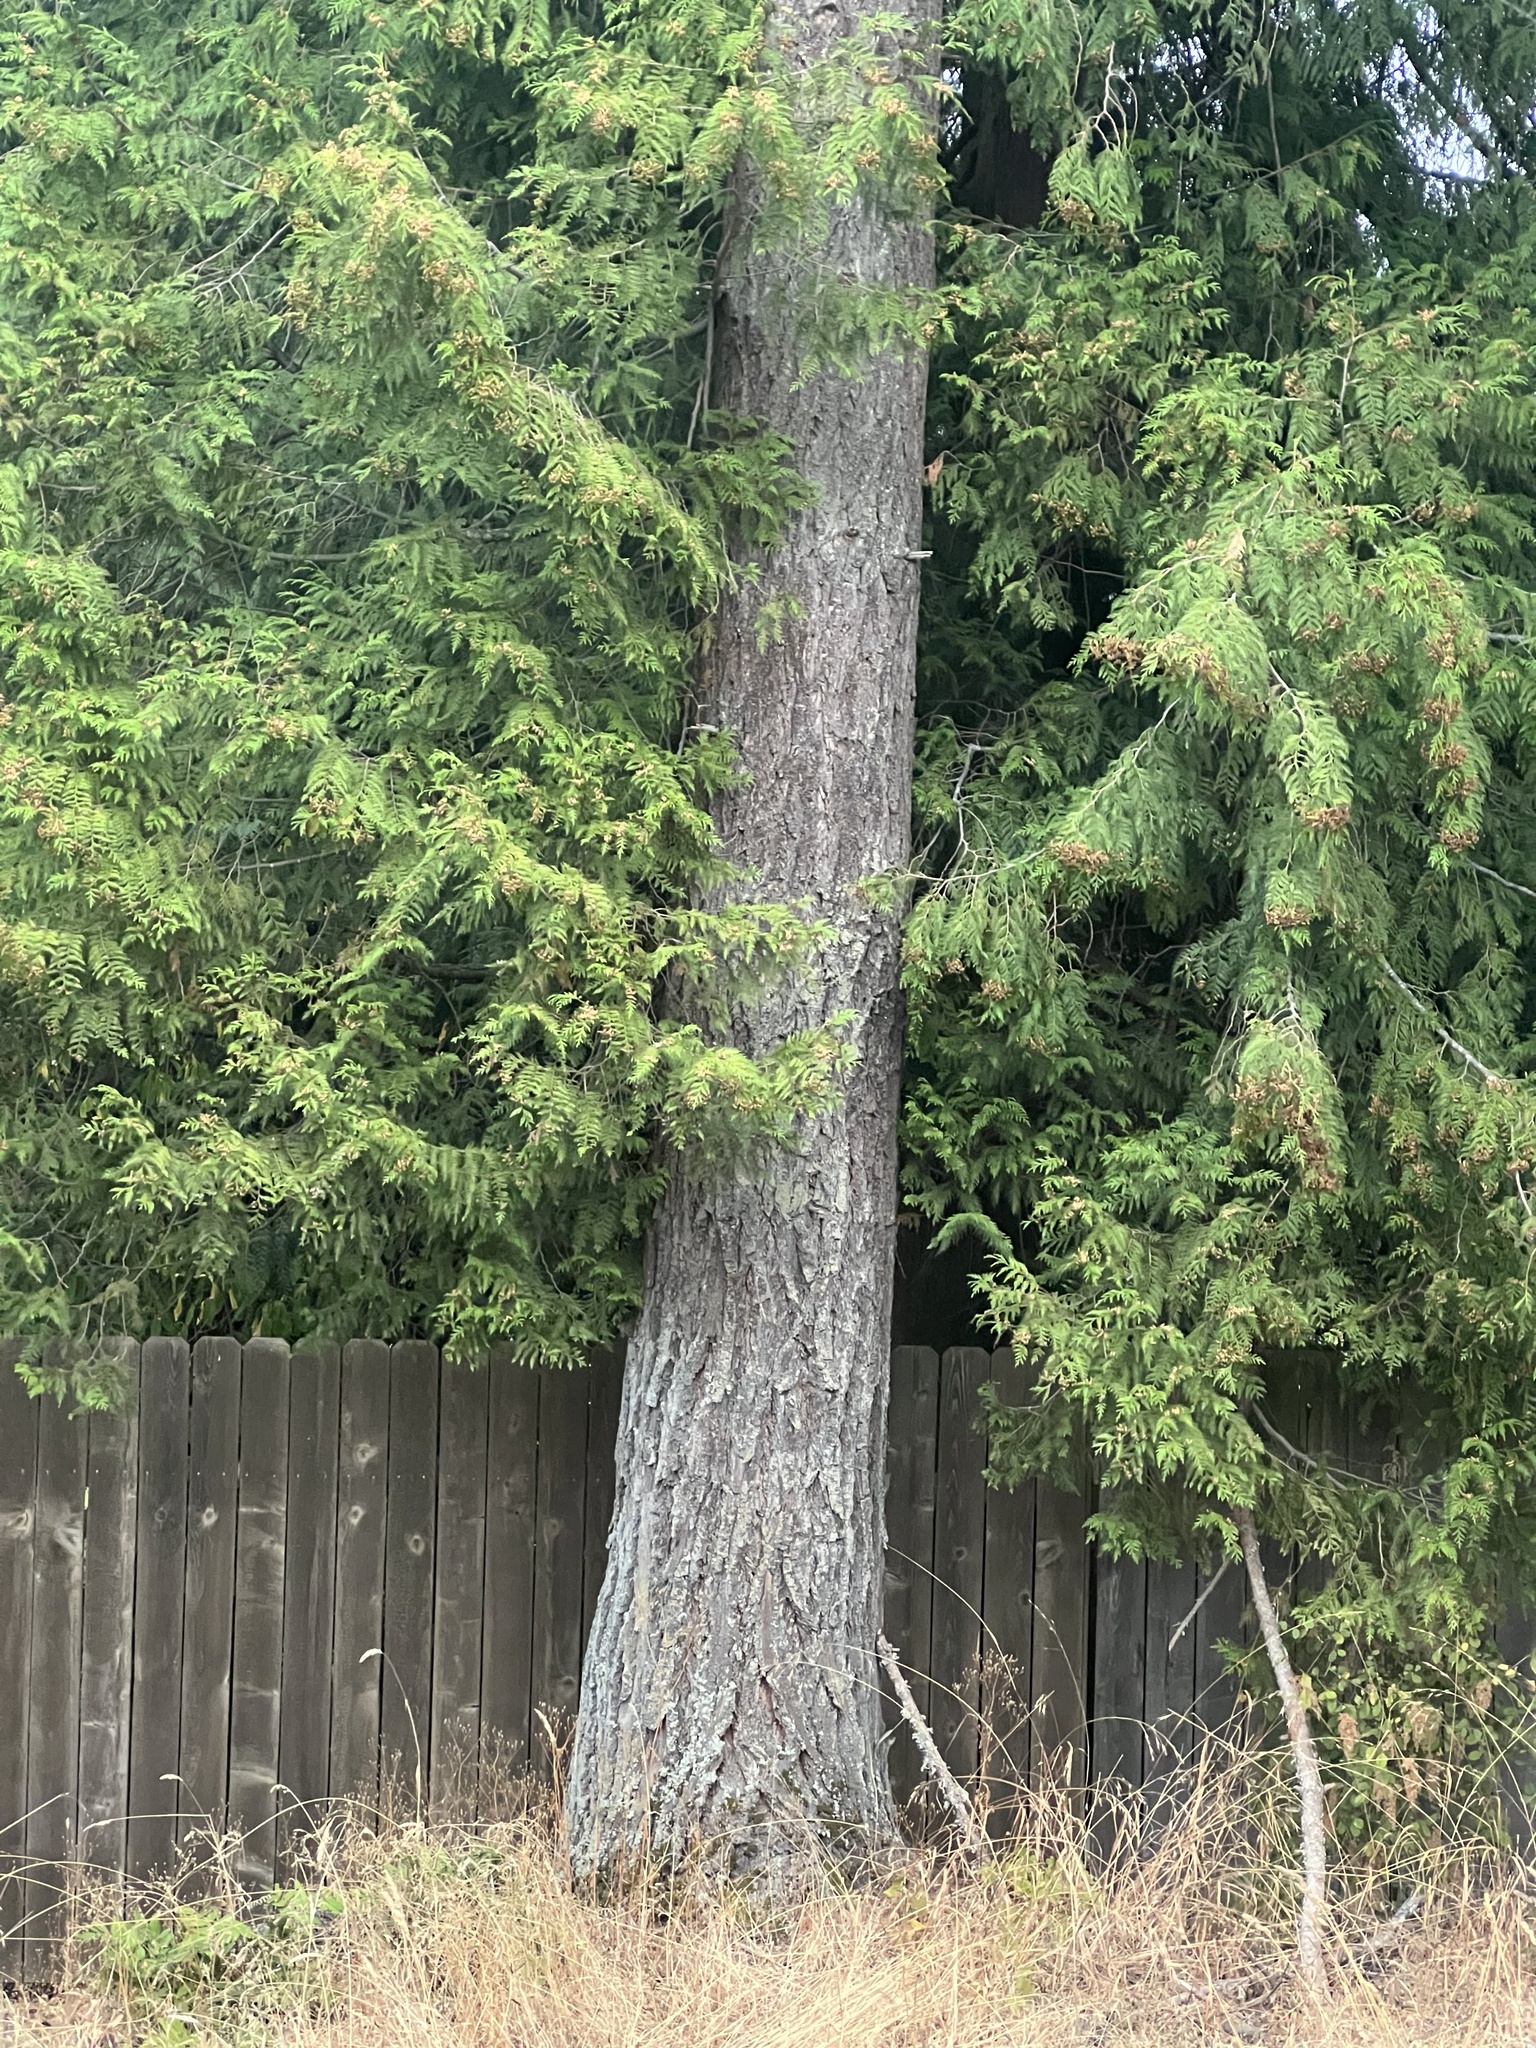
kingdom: Plantae
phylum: Tracheophyta
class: Pinopsida
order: Pinales
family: Pinaceae
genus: Pseudotsuga
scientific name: Pseudotsuga menziesii
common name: Douglas fir
